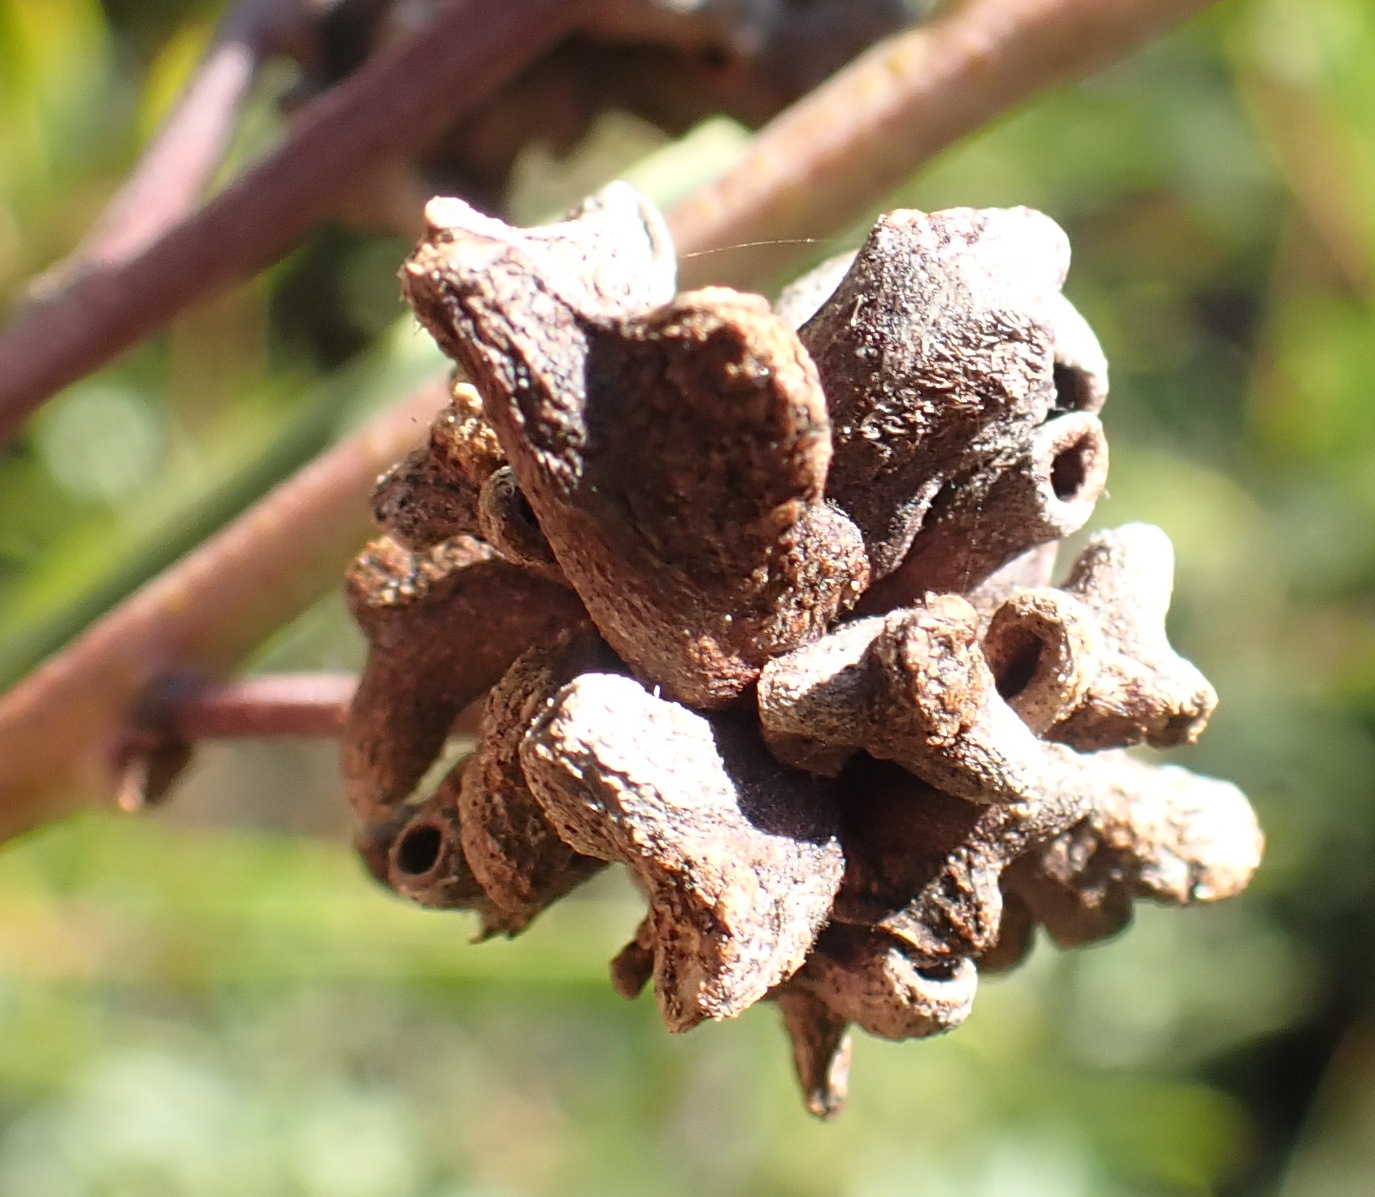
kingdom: Animalia
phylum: Arthropoda
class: Insecta
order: Diptera
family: Cecidomyiidae
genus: Dasineura
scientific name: Dasineura dielsi
